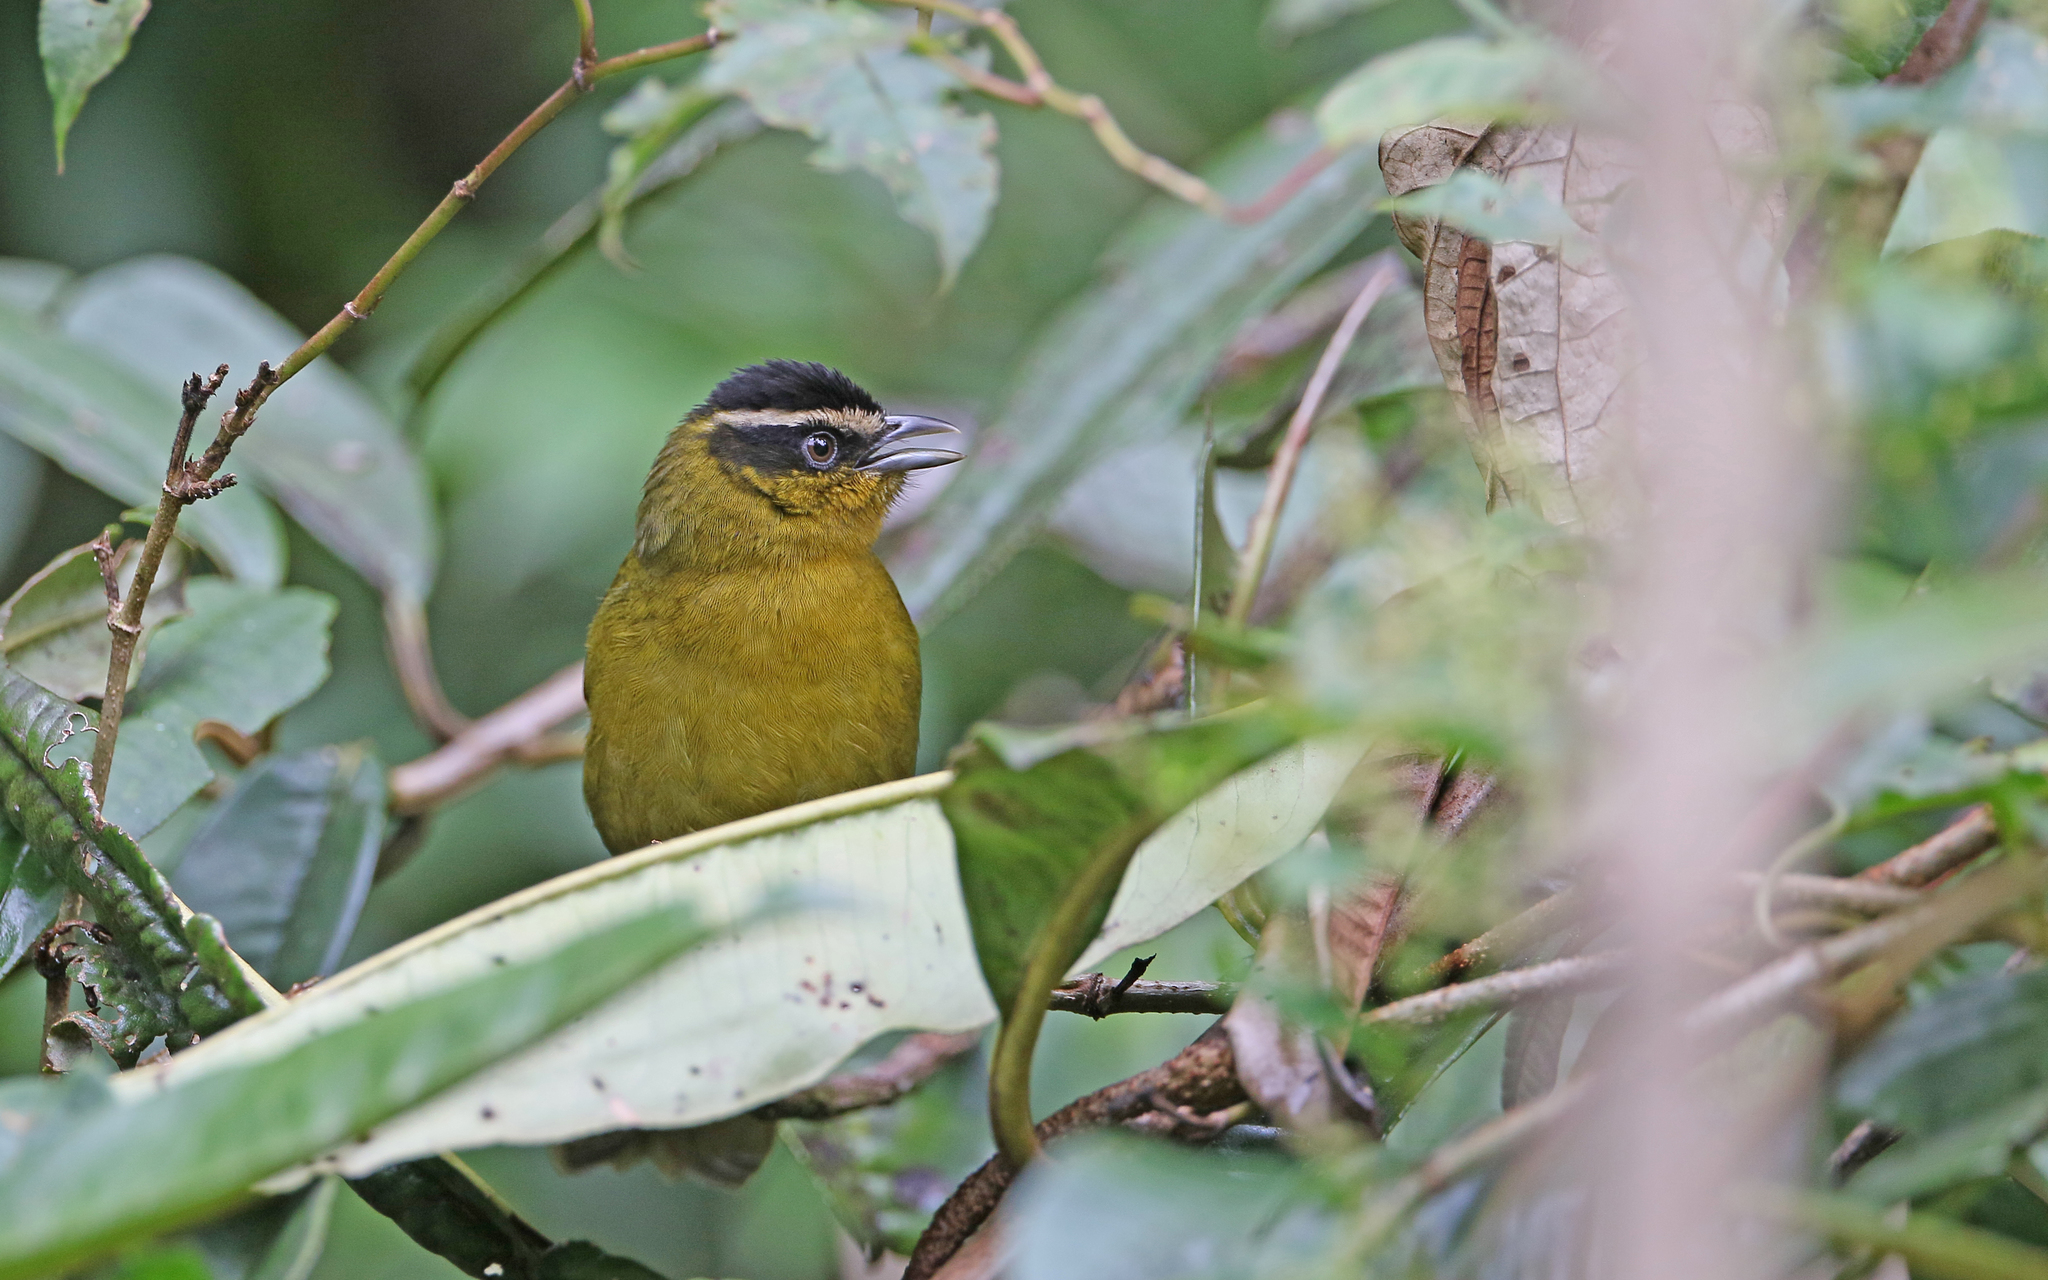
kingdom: Animalia
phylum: Chordata
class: Aves
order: Passeriformes
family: Thraupidae
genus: Kleinothraupis
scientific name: Kleinothraupis atropileus
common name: Black-capped hemispingus
